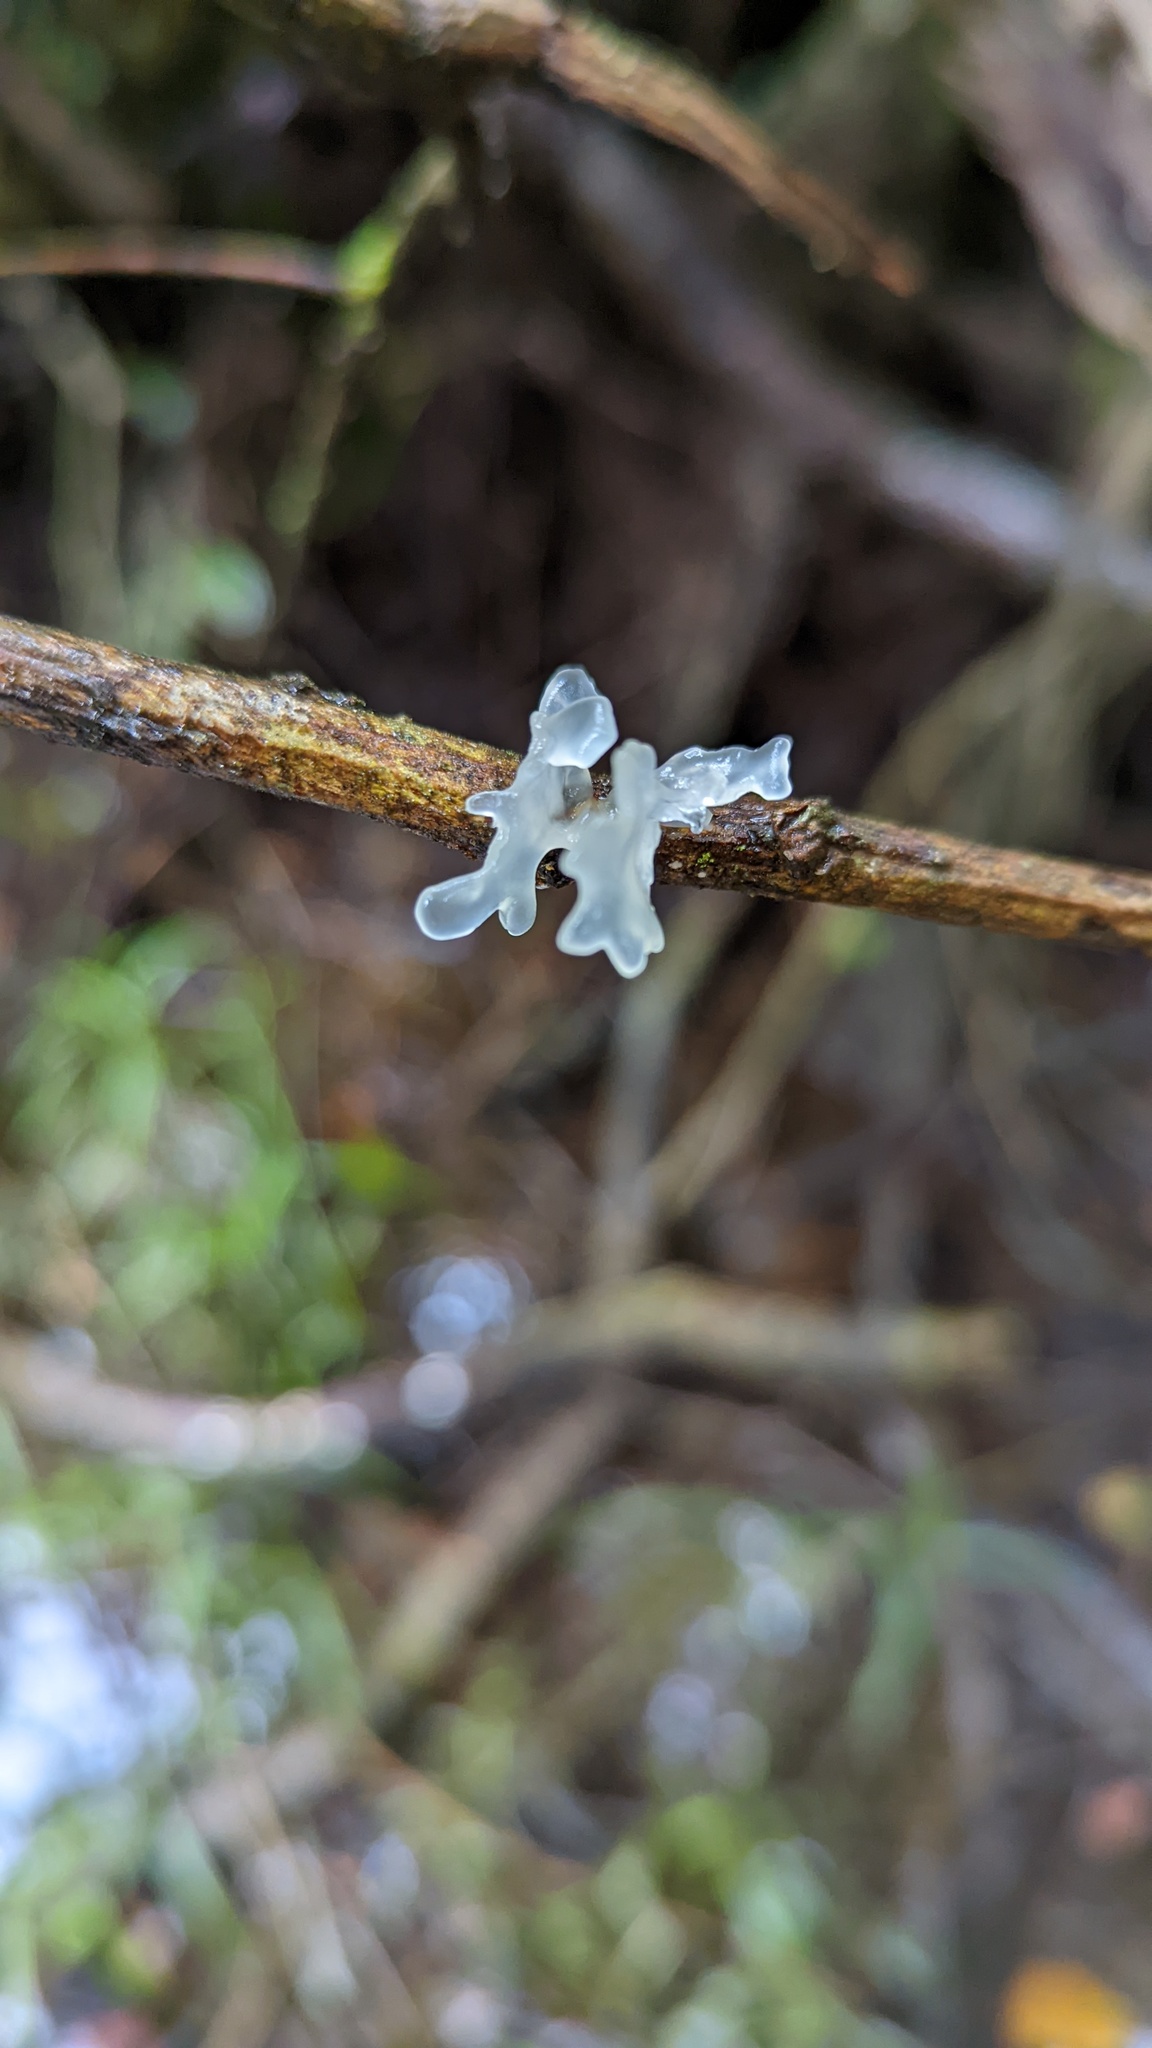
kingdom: Fungi
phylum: Basidiomycota
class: Tremellomycetes
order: Tremellales
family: Tremellaceae
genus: Tremella
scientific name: Tremella fuciformis
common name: Snow fungus
